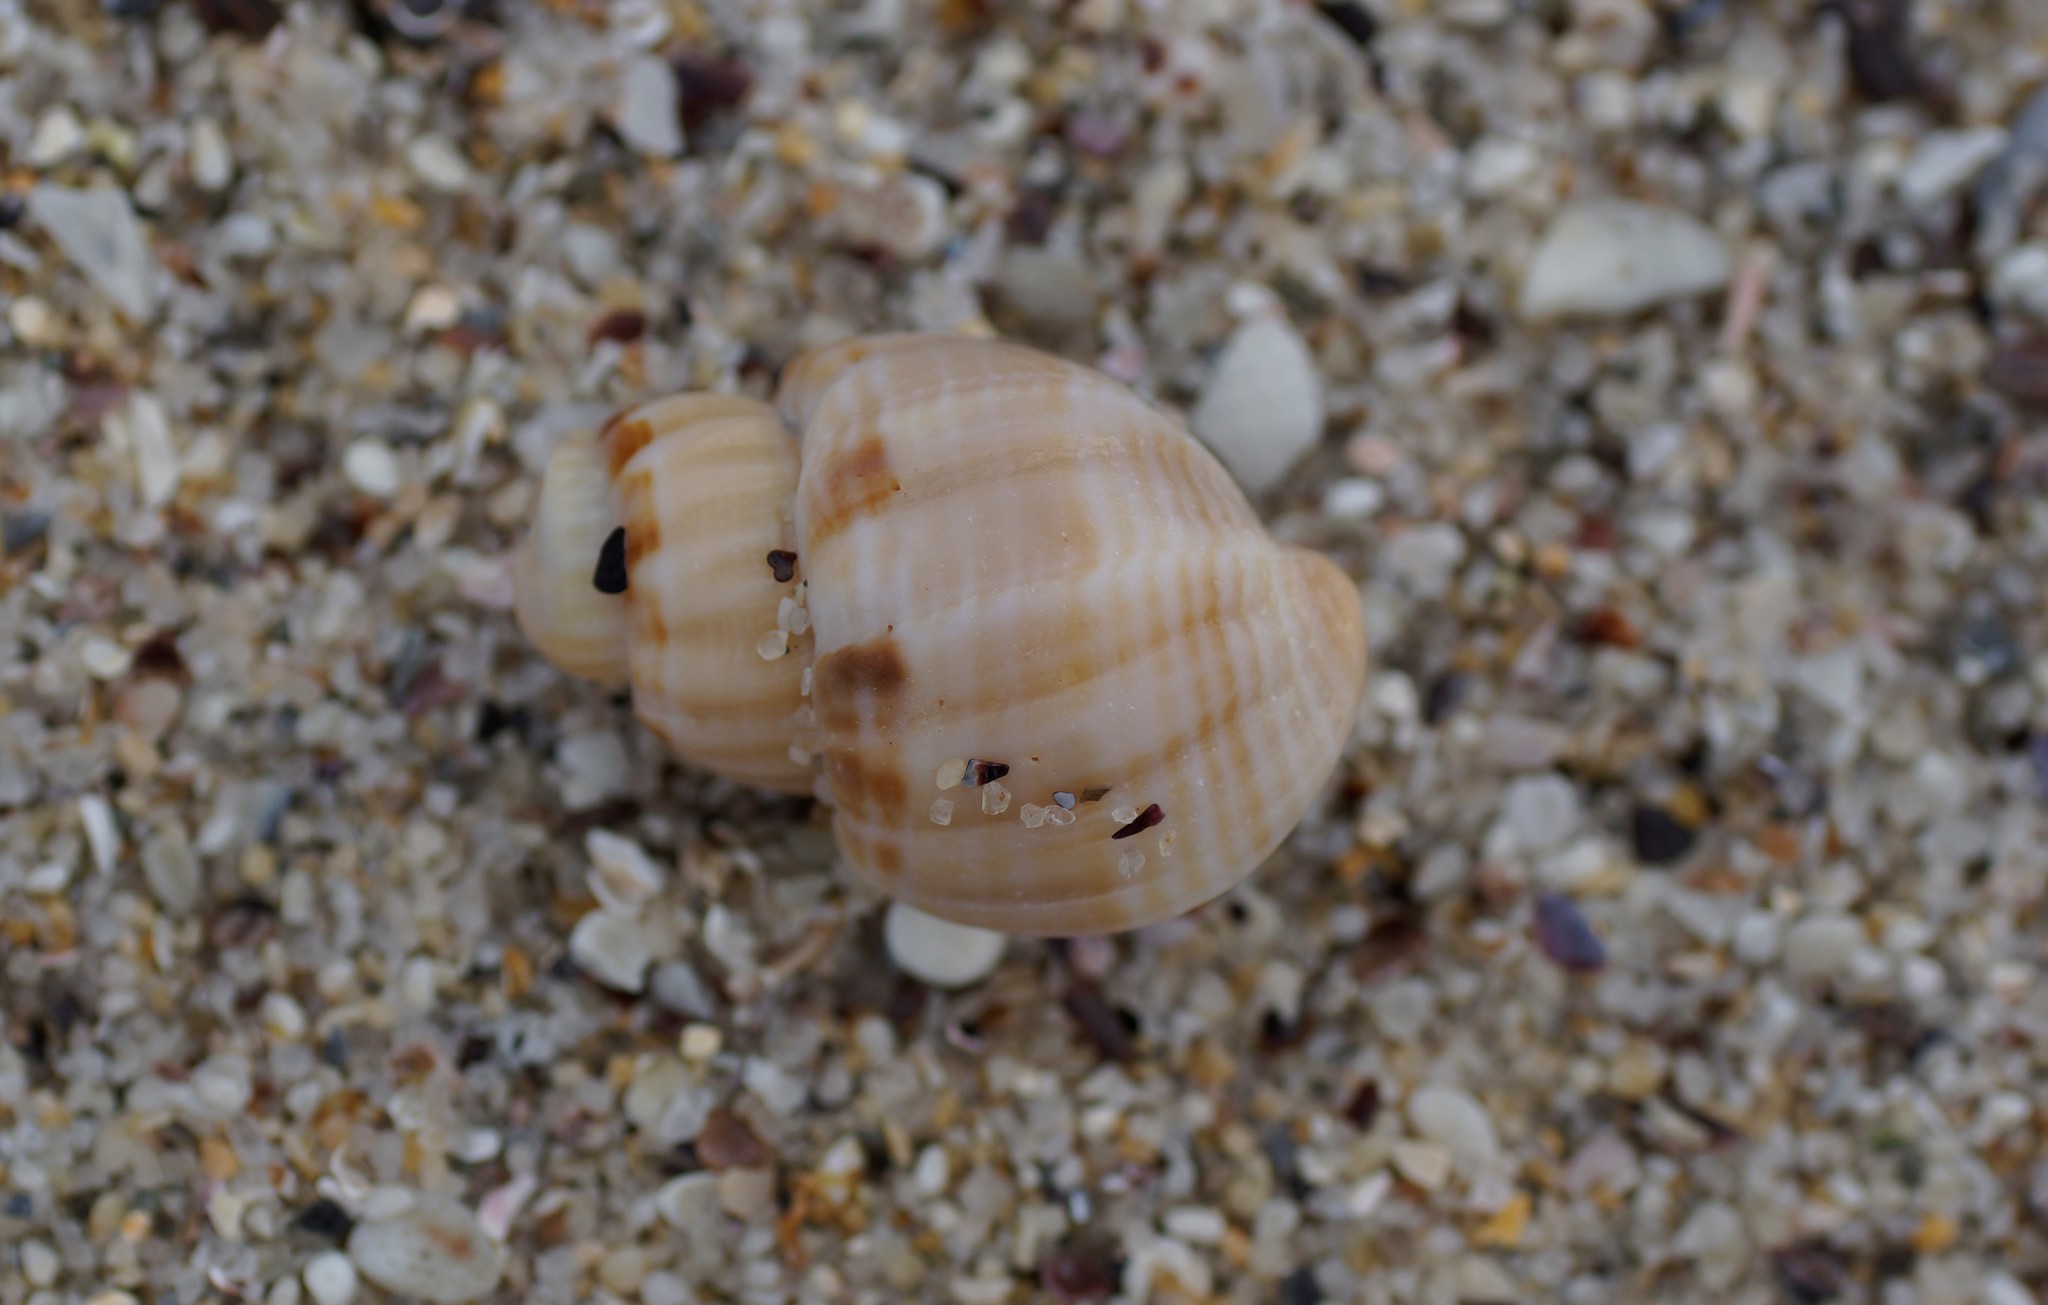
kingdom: Animalia
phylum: Mollusca
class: Gastropoda
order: Neogastropoda
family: Cancellariidae
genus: Merica
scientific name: Merica undulata
